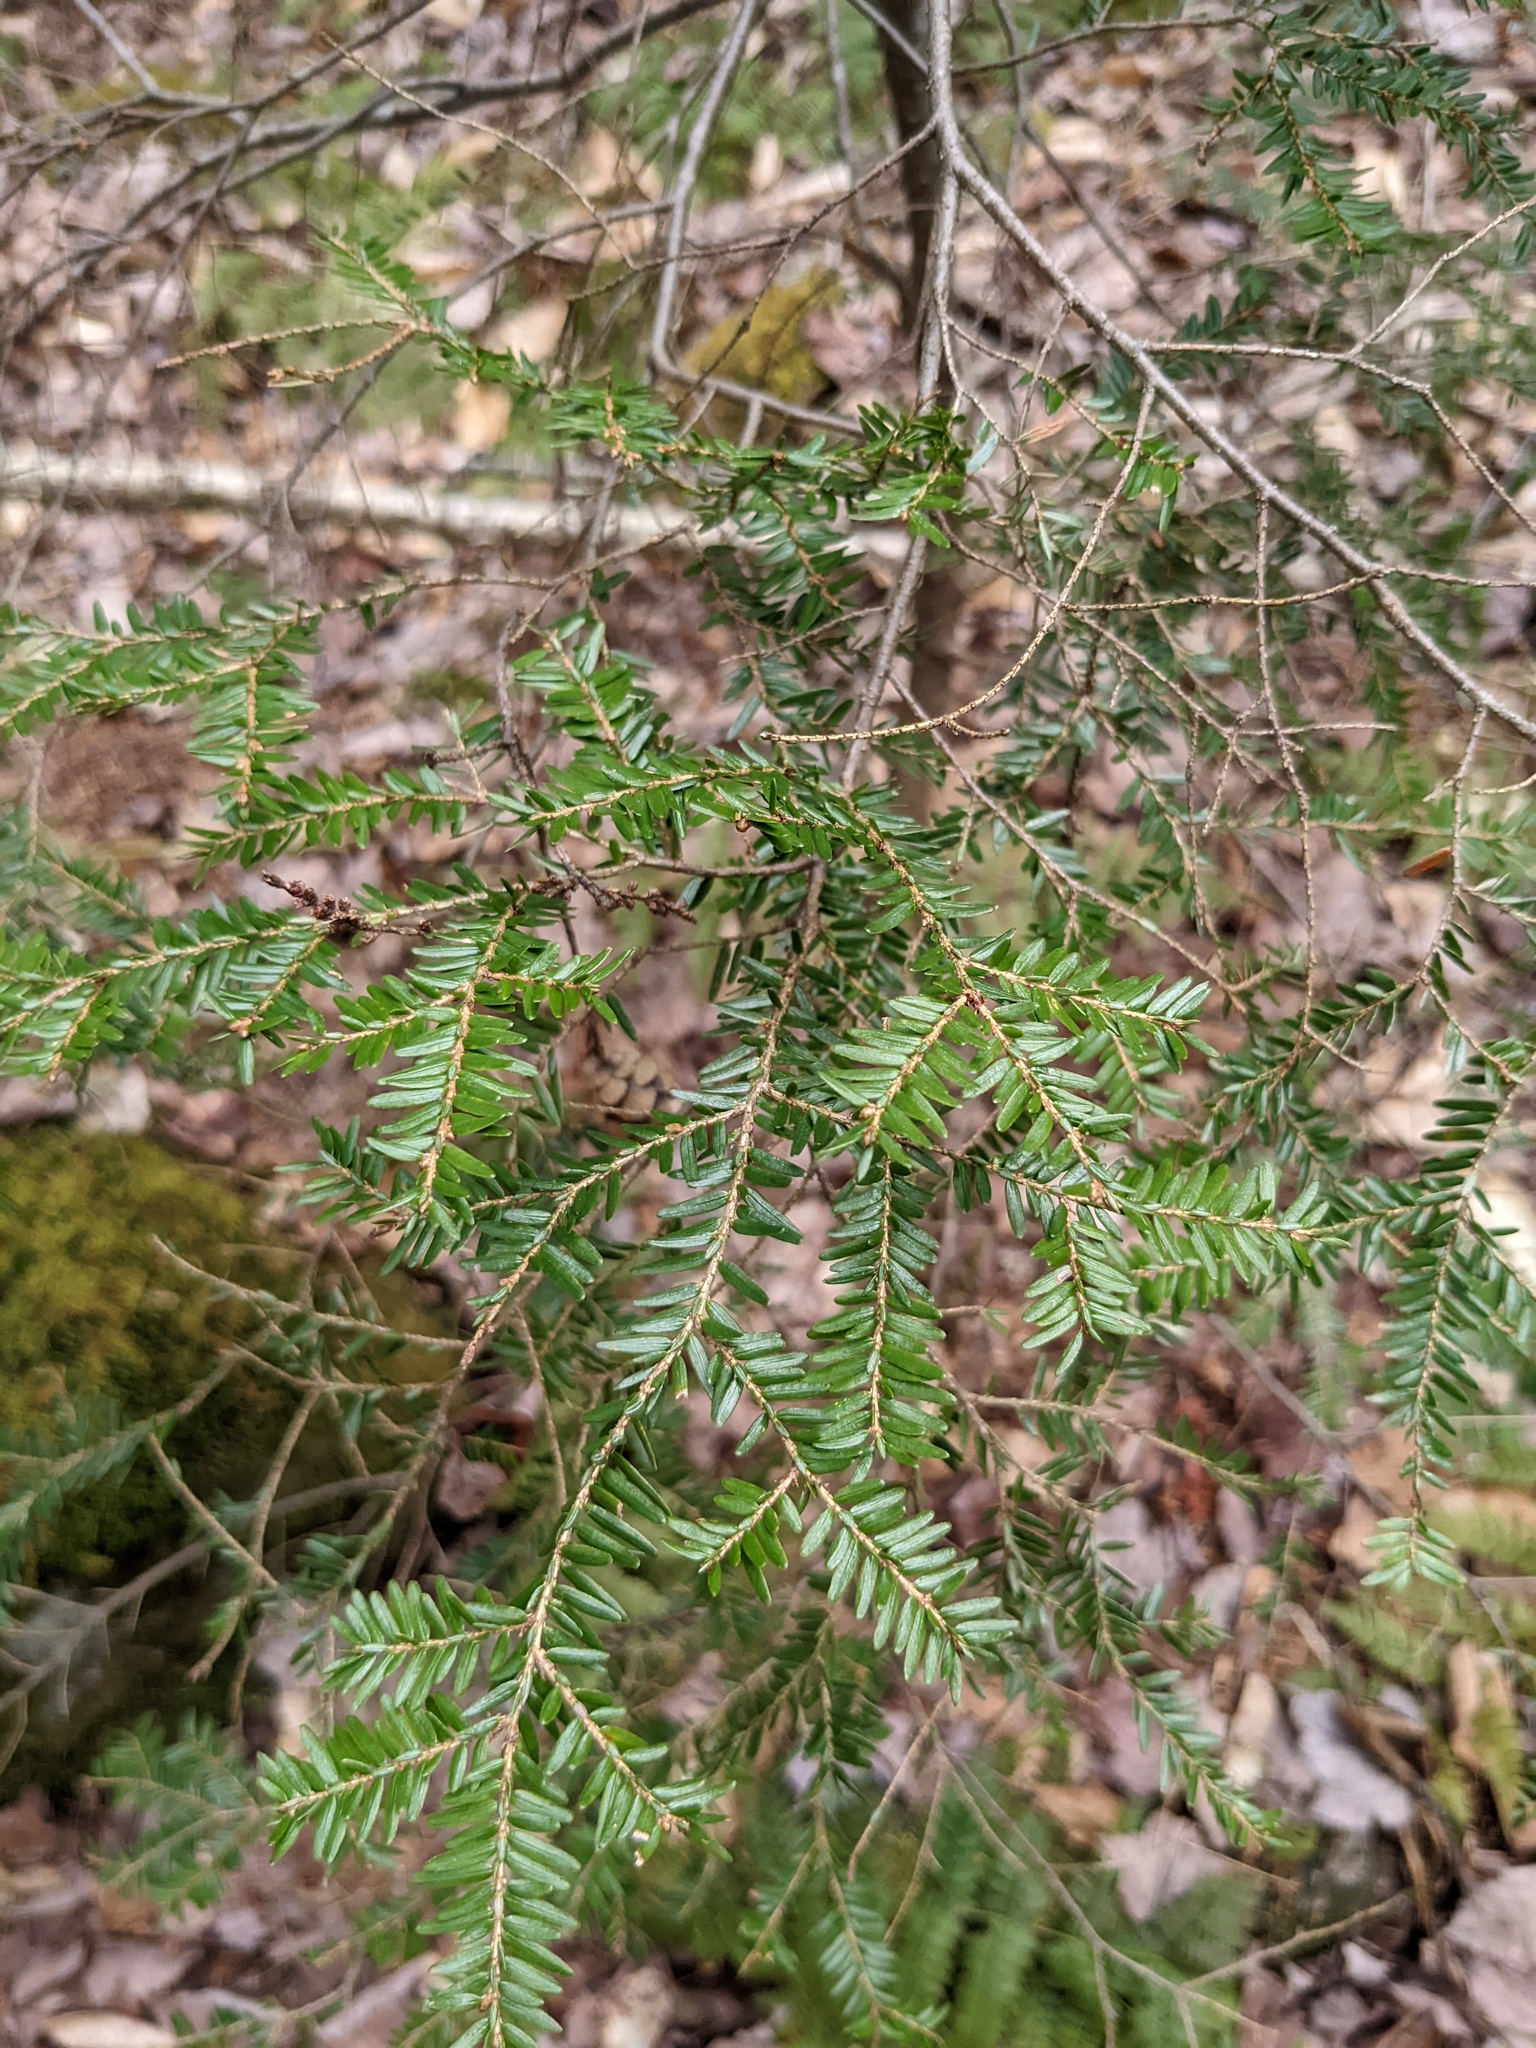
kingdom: Plantae
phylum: Tracheophyta
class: Pinopsida
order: Pinales
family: Pinaceae
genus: Tsuga
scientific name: Tsuga canadensis
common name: Eastern hemlock
